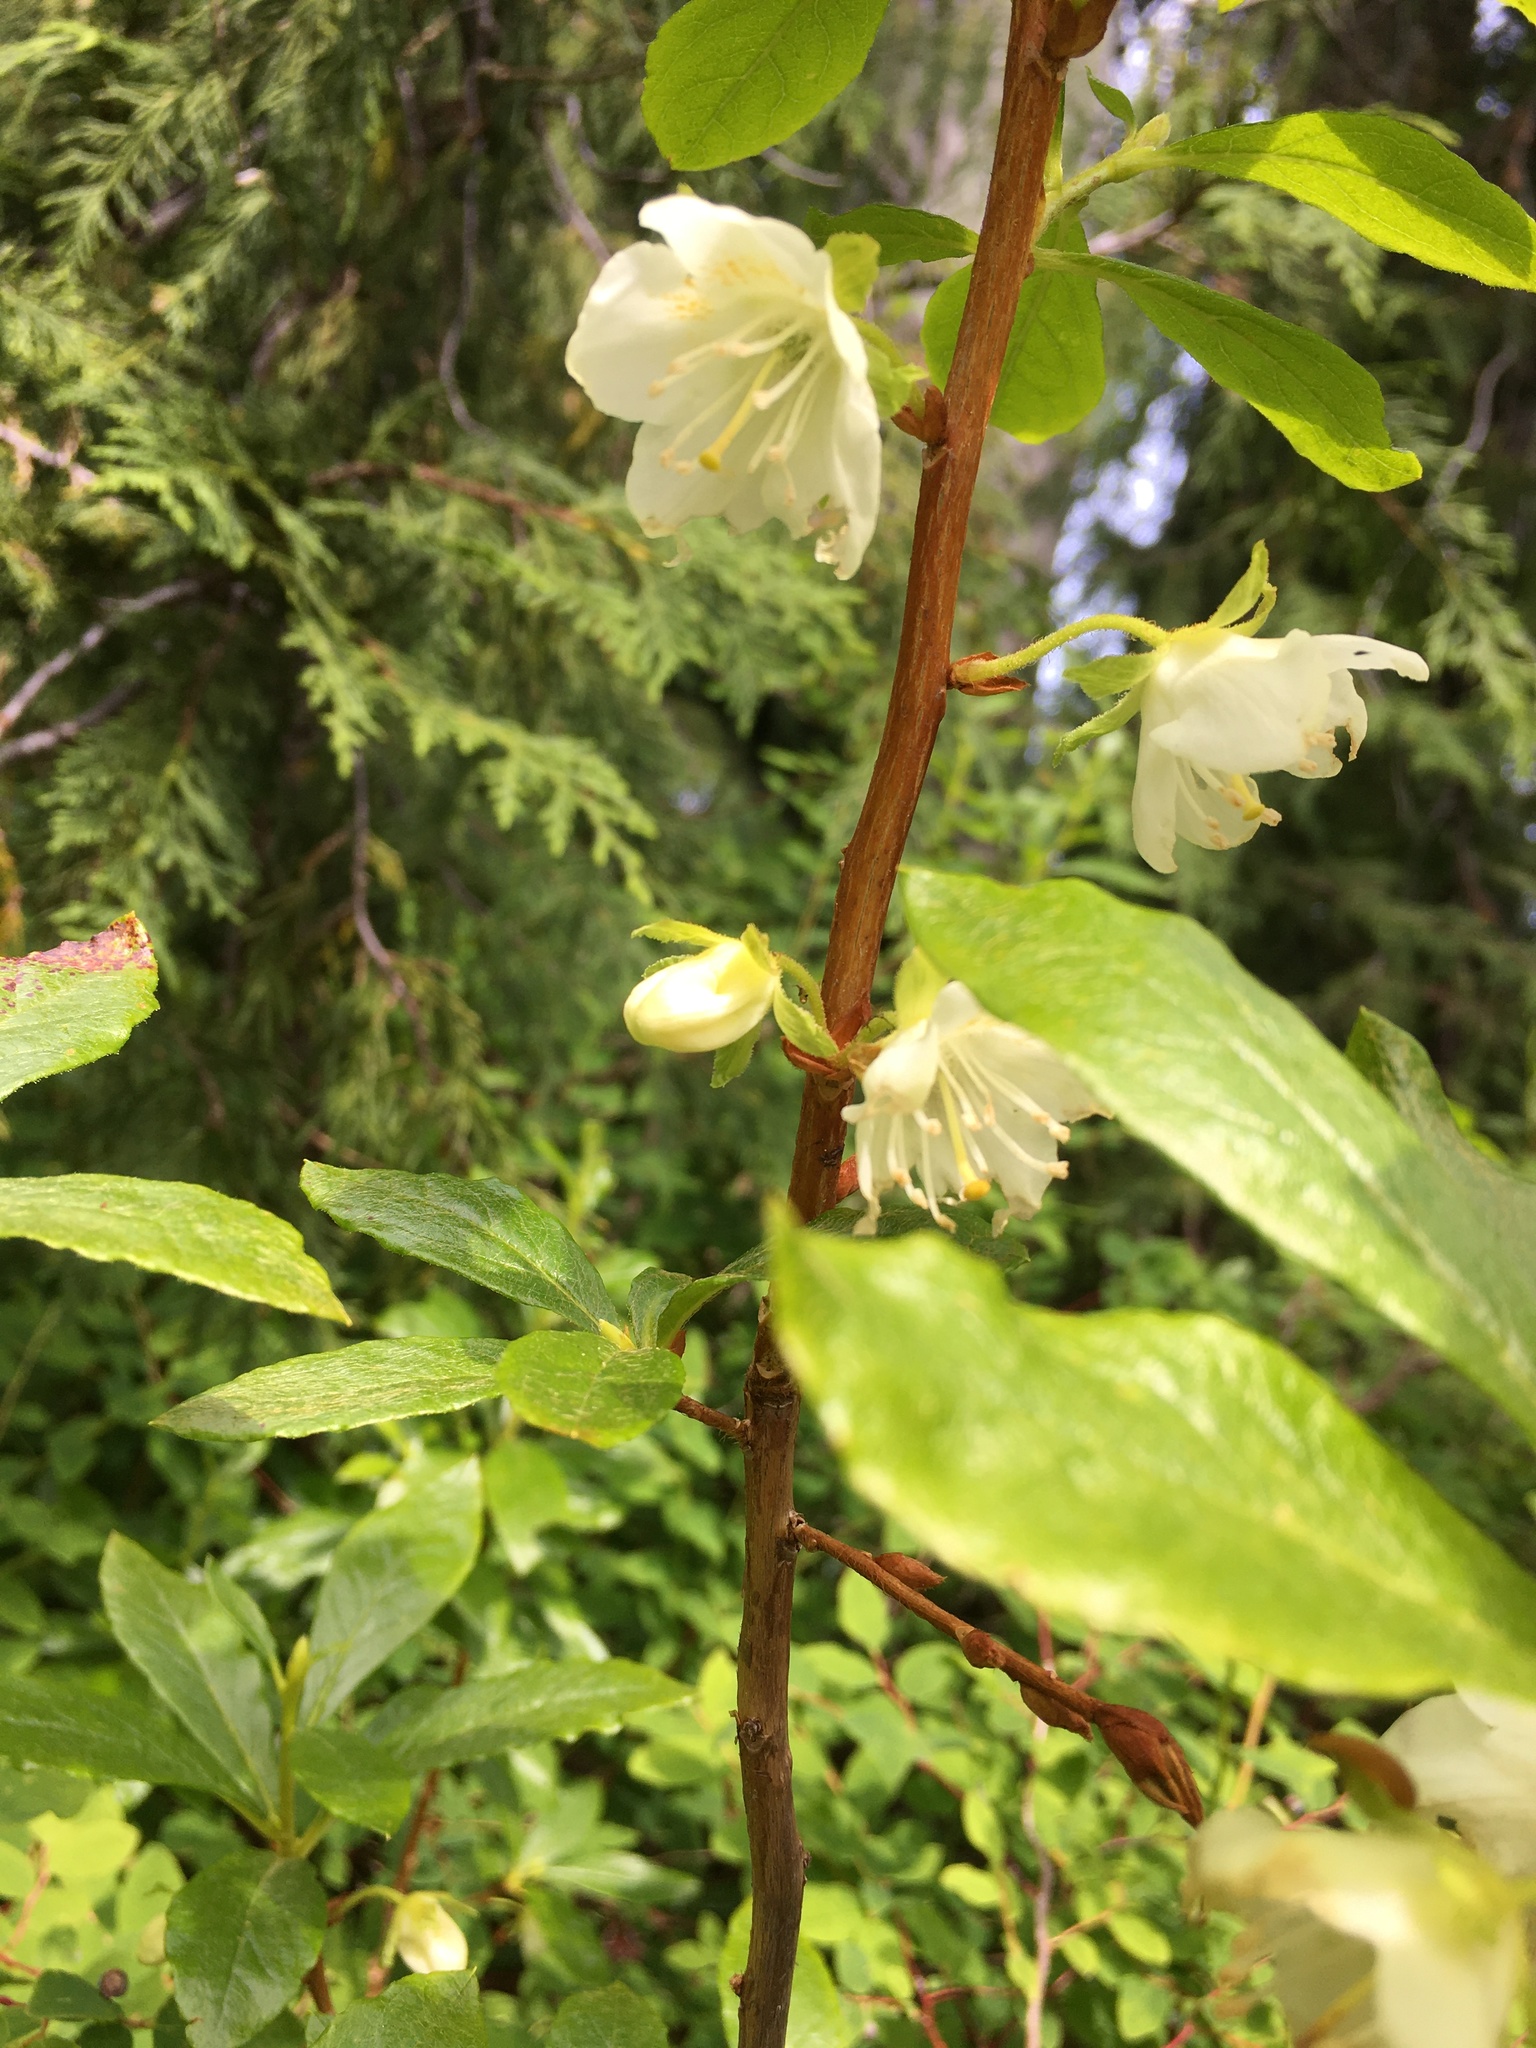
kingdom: Plantae
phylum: Tracheophyta
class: Magnoliopsida
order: Ericales
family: Ericaceae
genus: Rhododendron
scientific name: Rhododendron albiflorum
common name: White rhododendron
